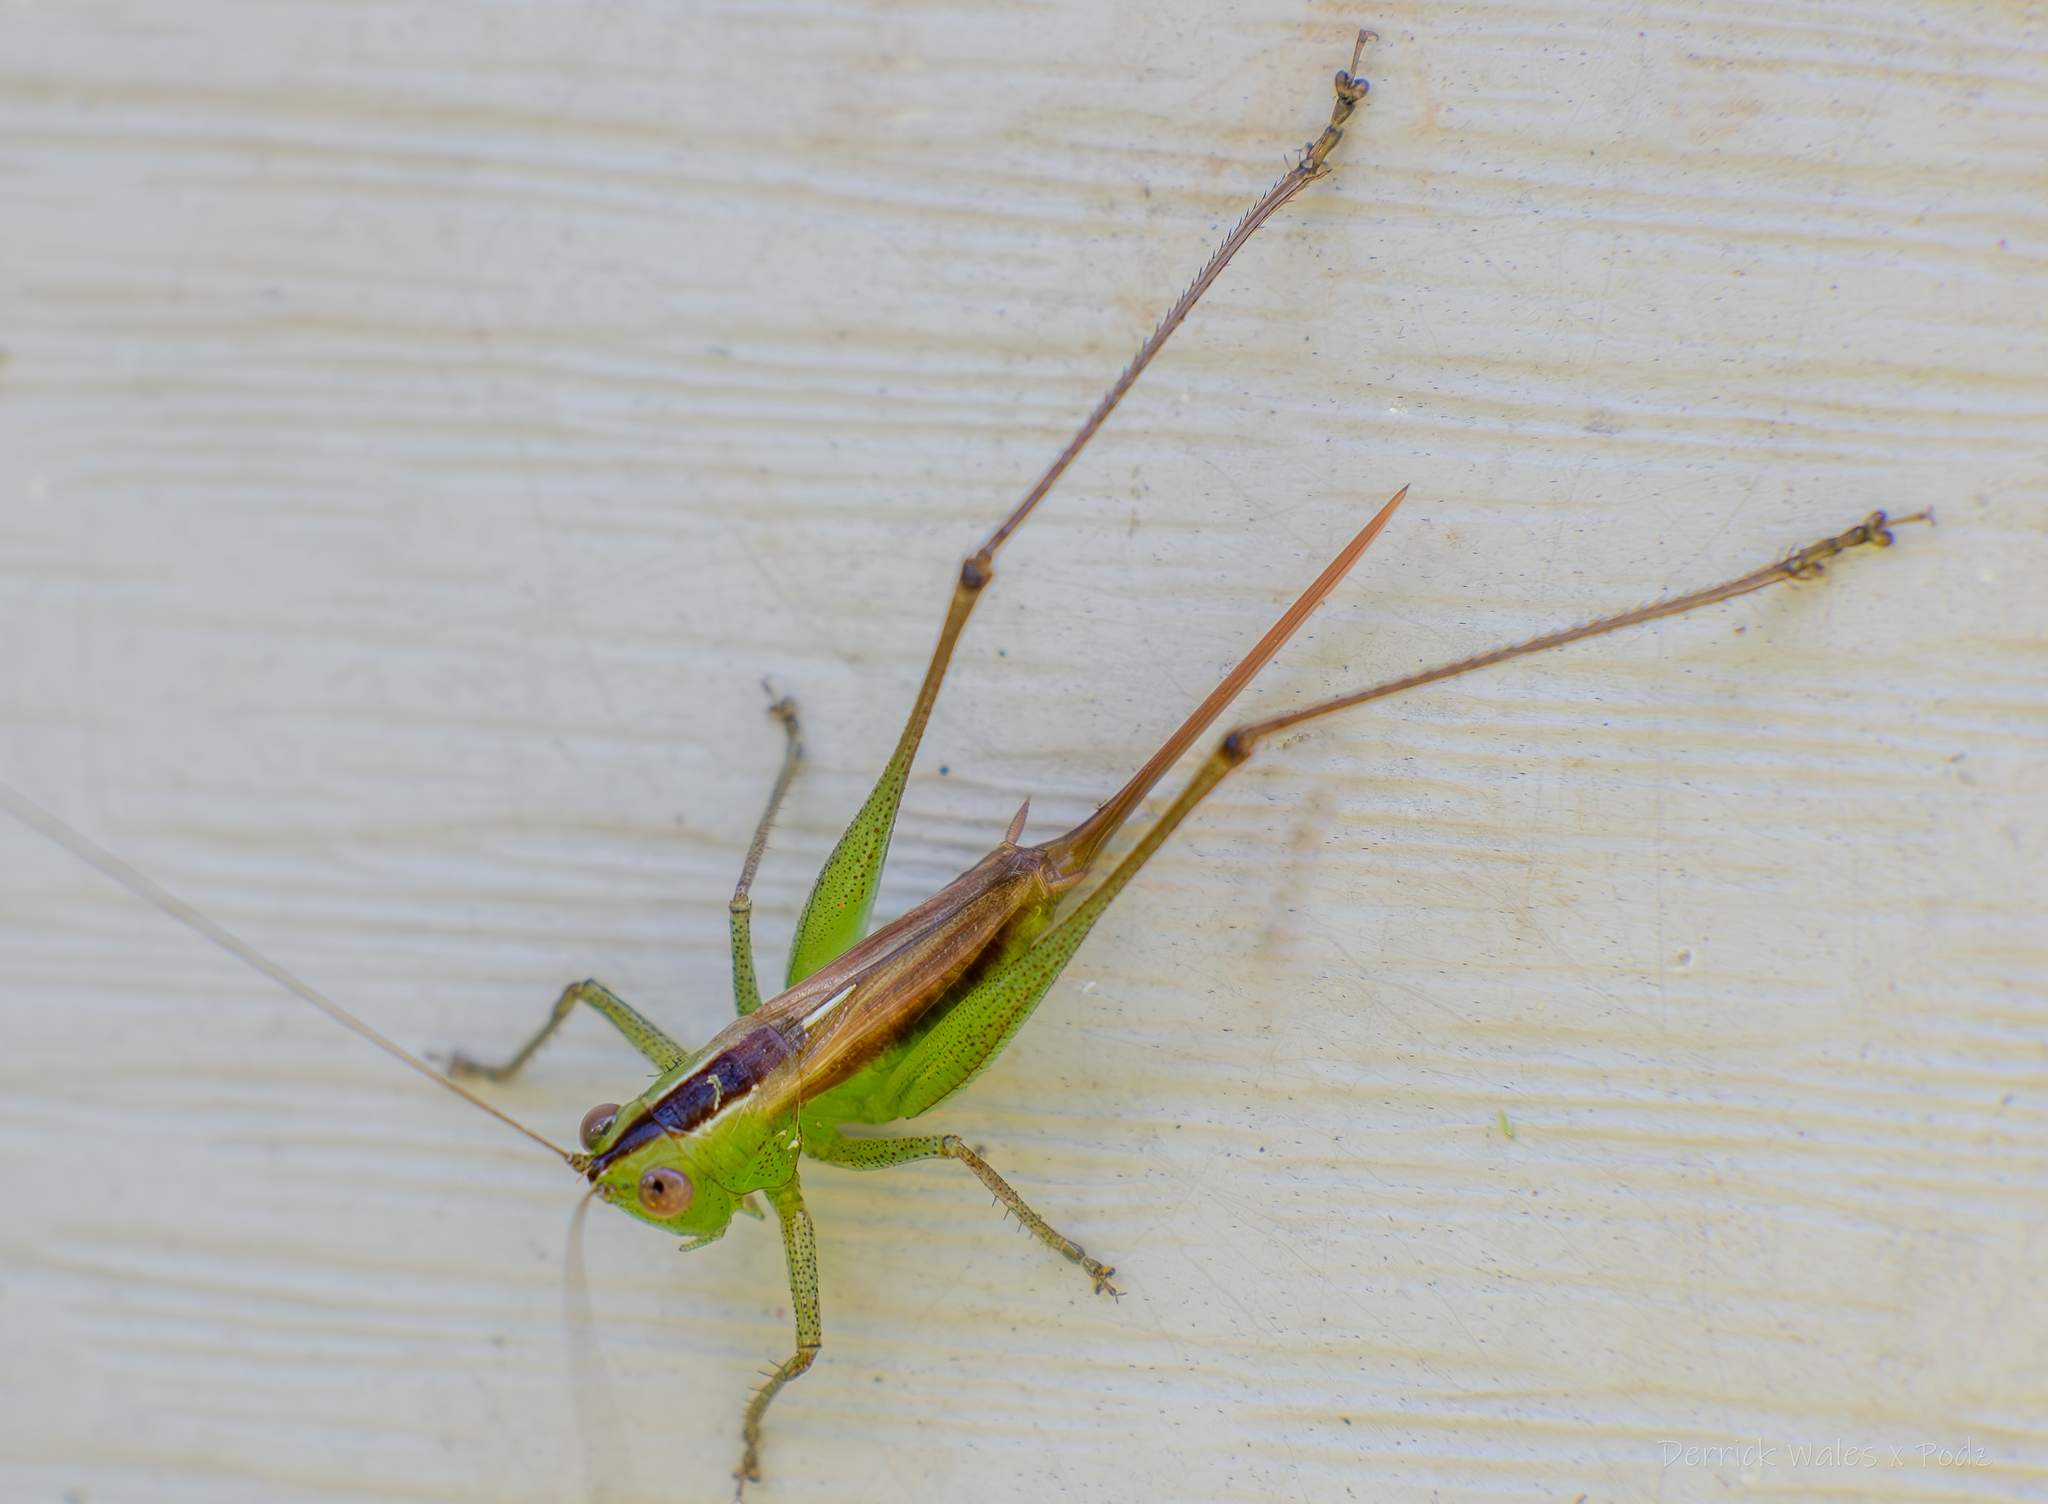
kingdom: Animalia
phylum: Arthropoda
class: Insecta
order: Orthoptera
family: Tettigoniidae
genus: Conocephalus
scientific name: Conocephalus brevipennis
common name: Short-winged meadow katydid
